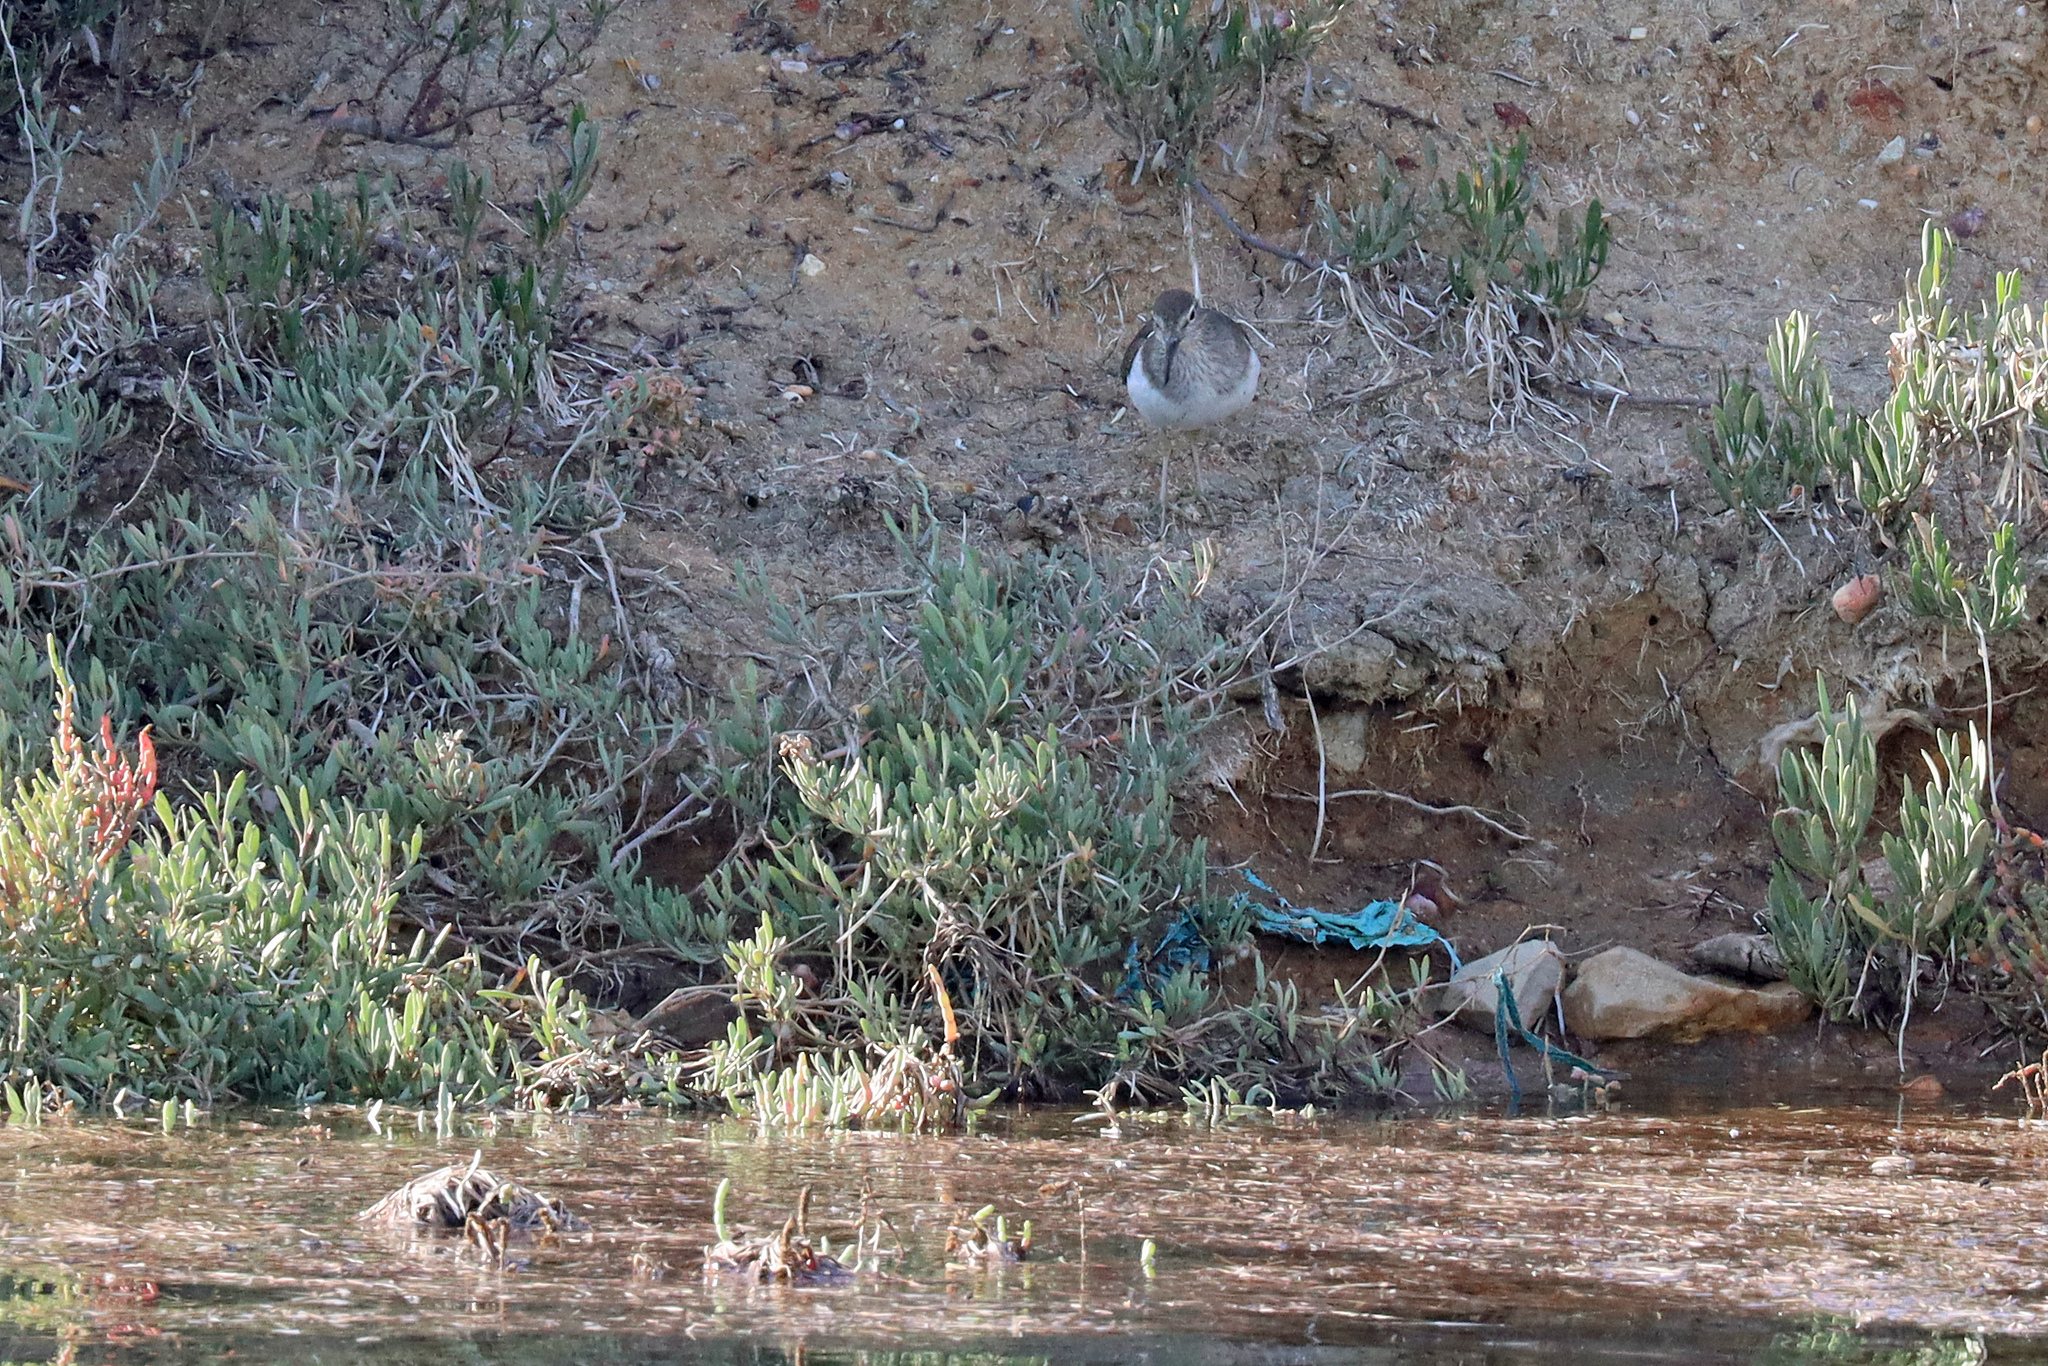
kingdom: Animalia
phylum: Chordata
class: Aves
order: Charadriiformes
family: Scolopacidae
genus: Actitis
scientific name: Actitis hypoleucos
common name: Common sandpiper
